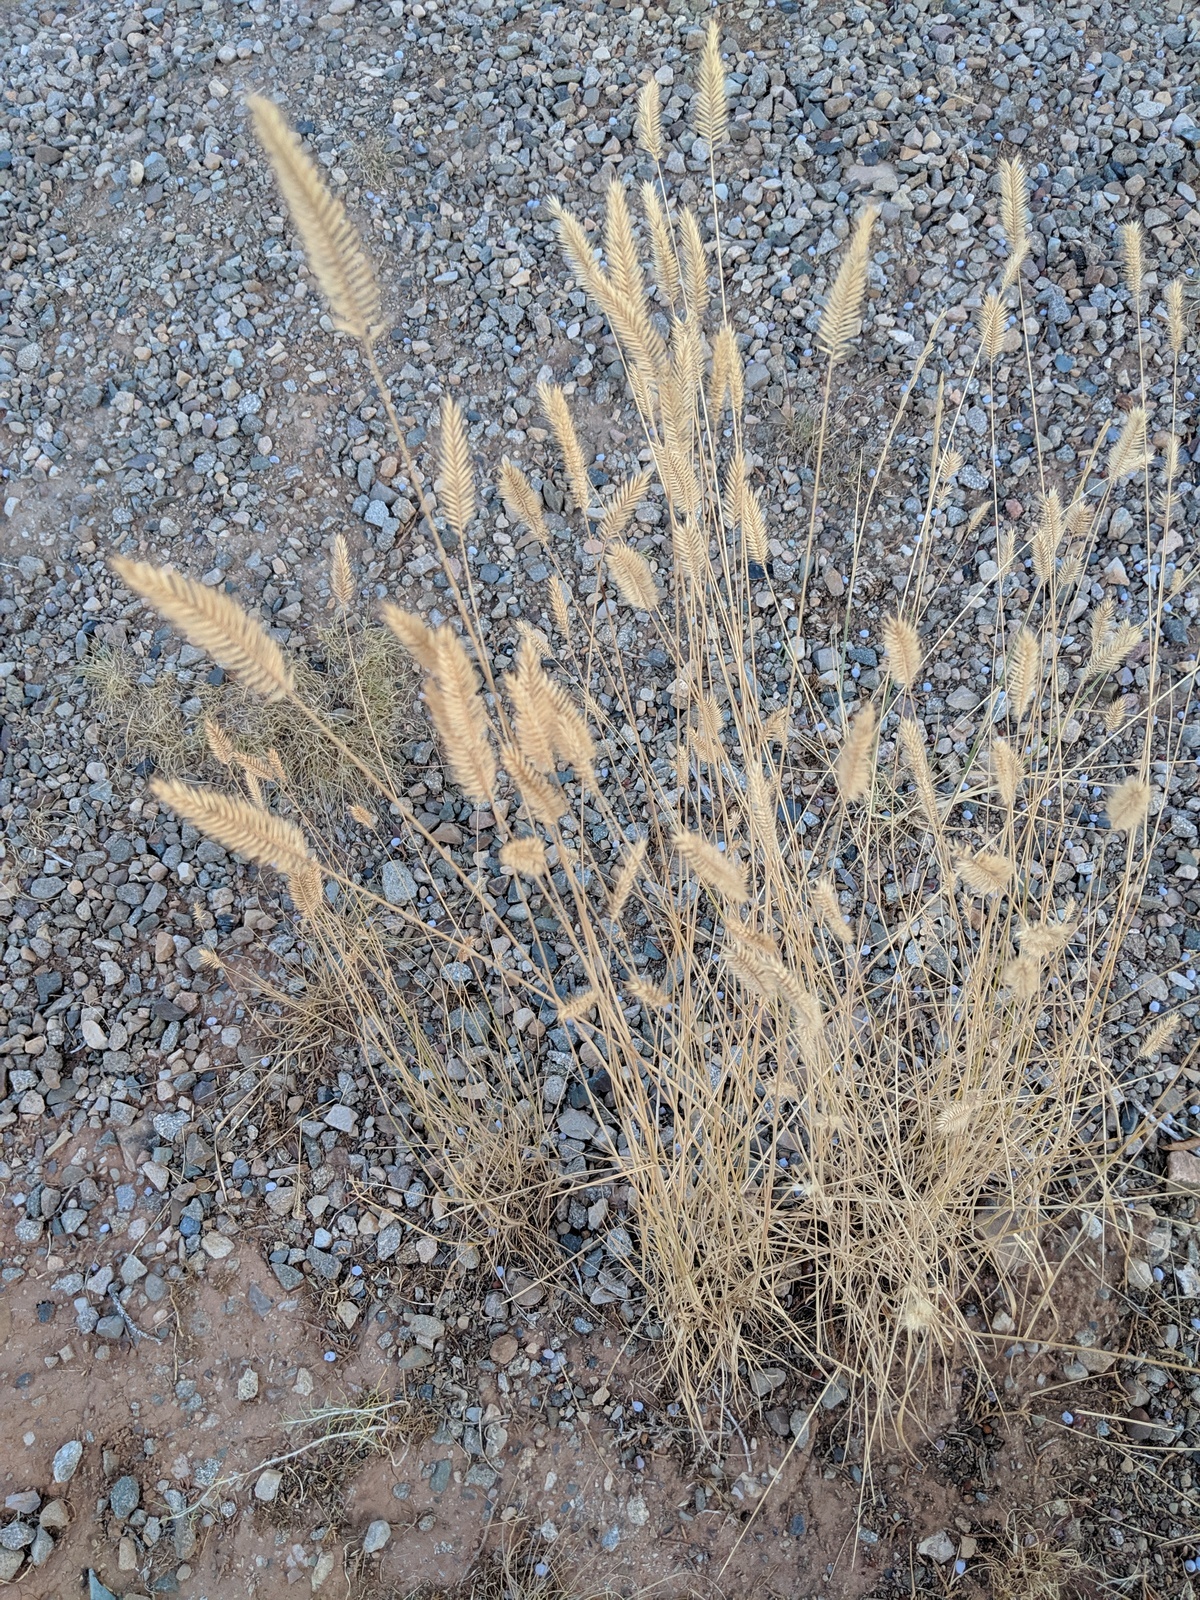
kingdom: Plantae
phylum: Tracheophyta
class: Liliopsida
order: Poales
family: Poaceae
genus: Agropyron
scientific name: Agropyron cristatum
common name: Crested wheatgrass
